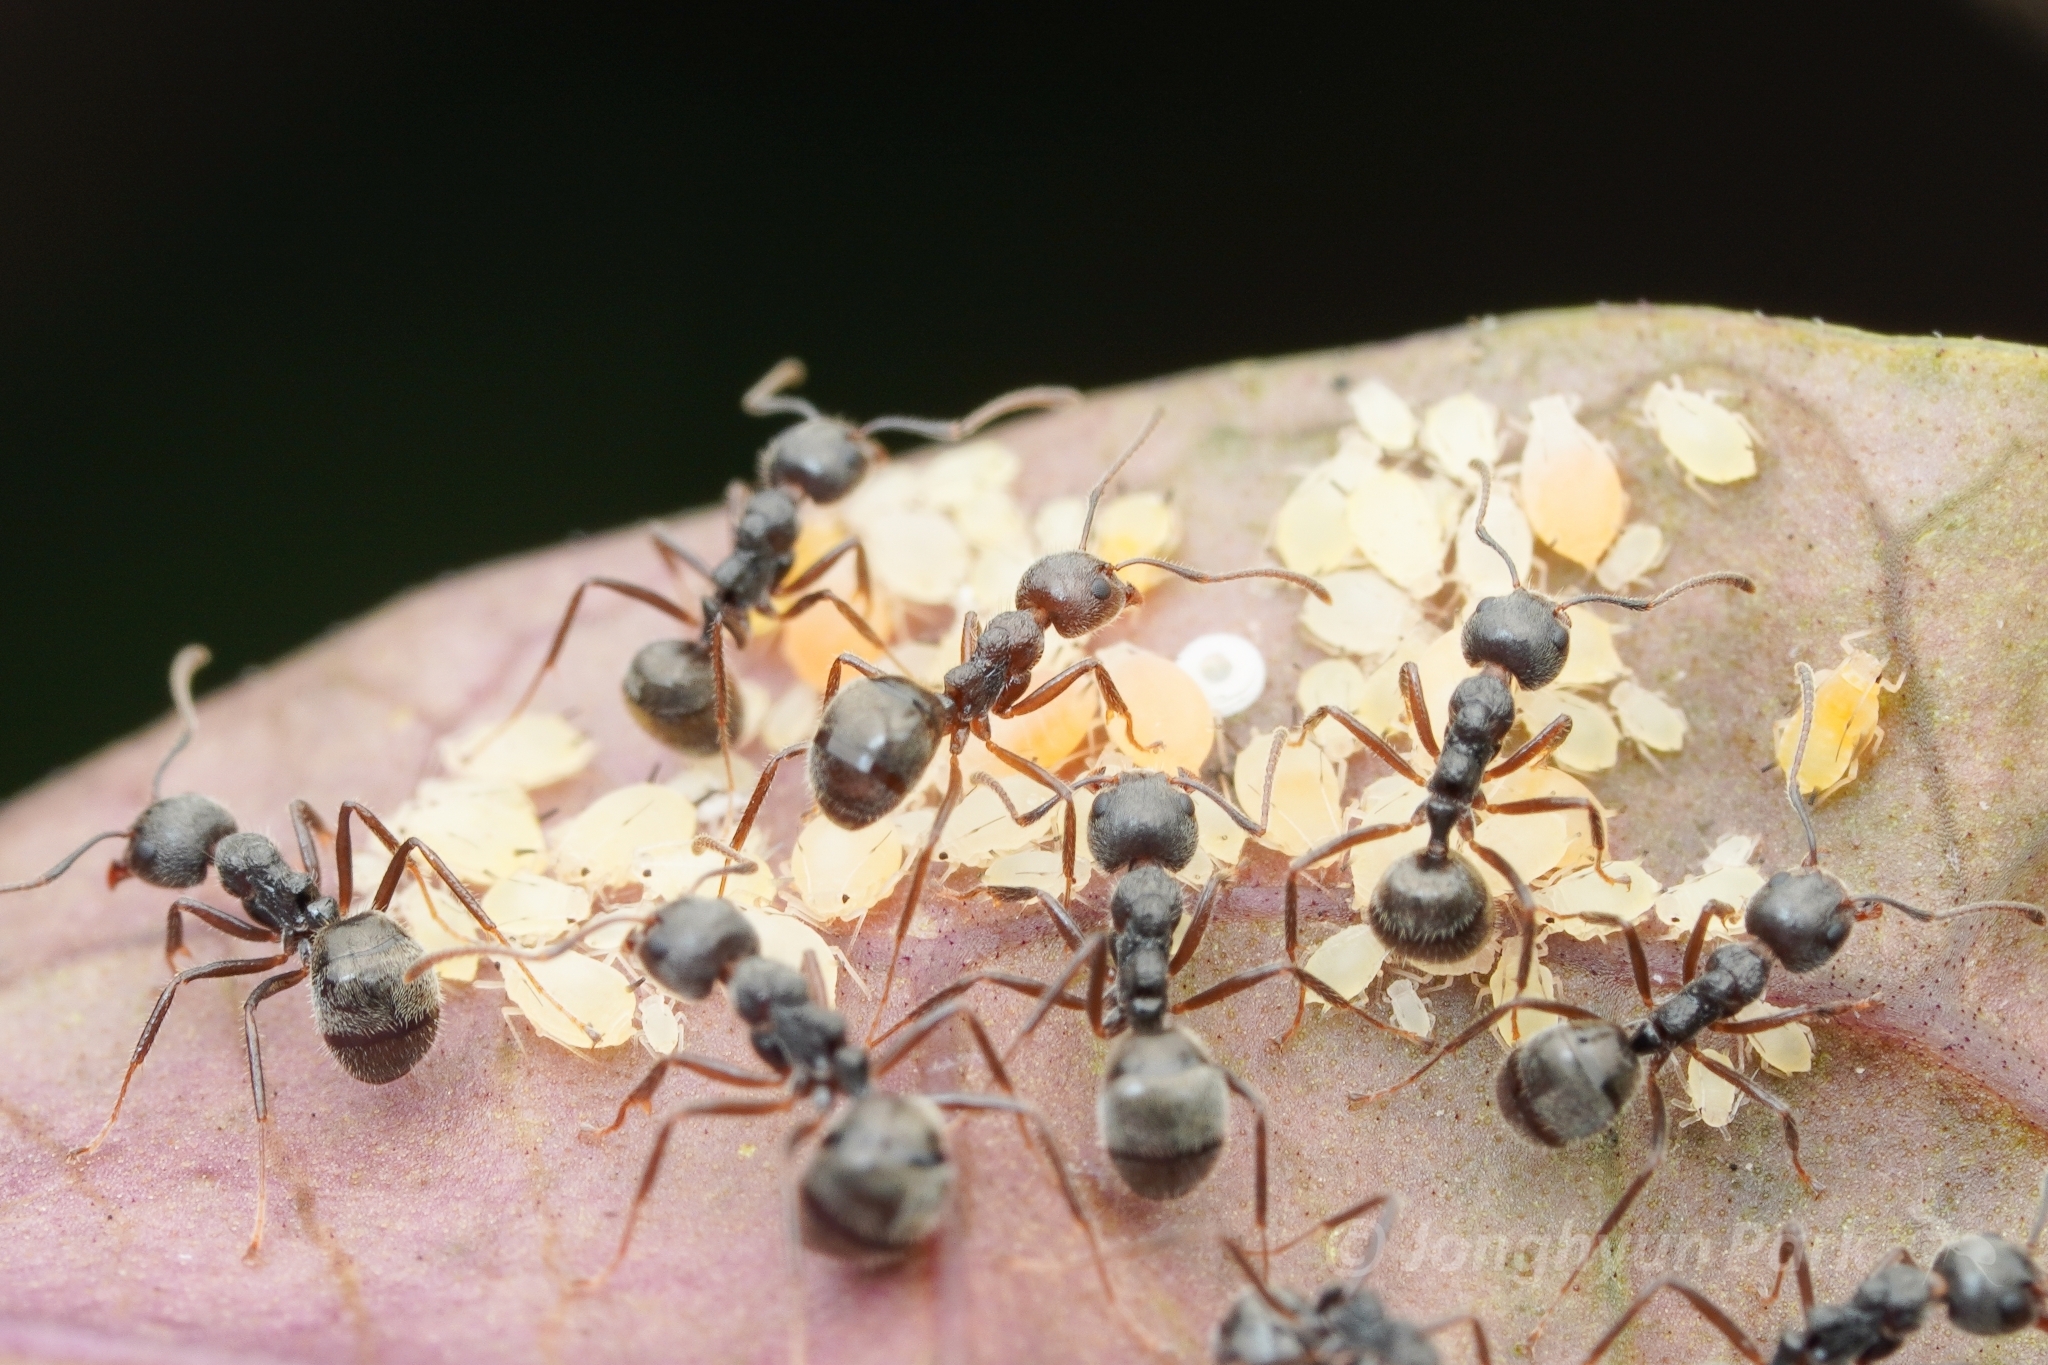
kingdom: Animalia
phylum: Arthropoda
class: Insecta
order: Hymenoptera
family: Formicidae
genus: Dolichoderus
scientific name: Dolichoderus thoracicus
